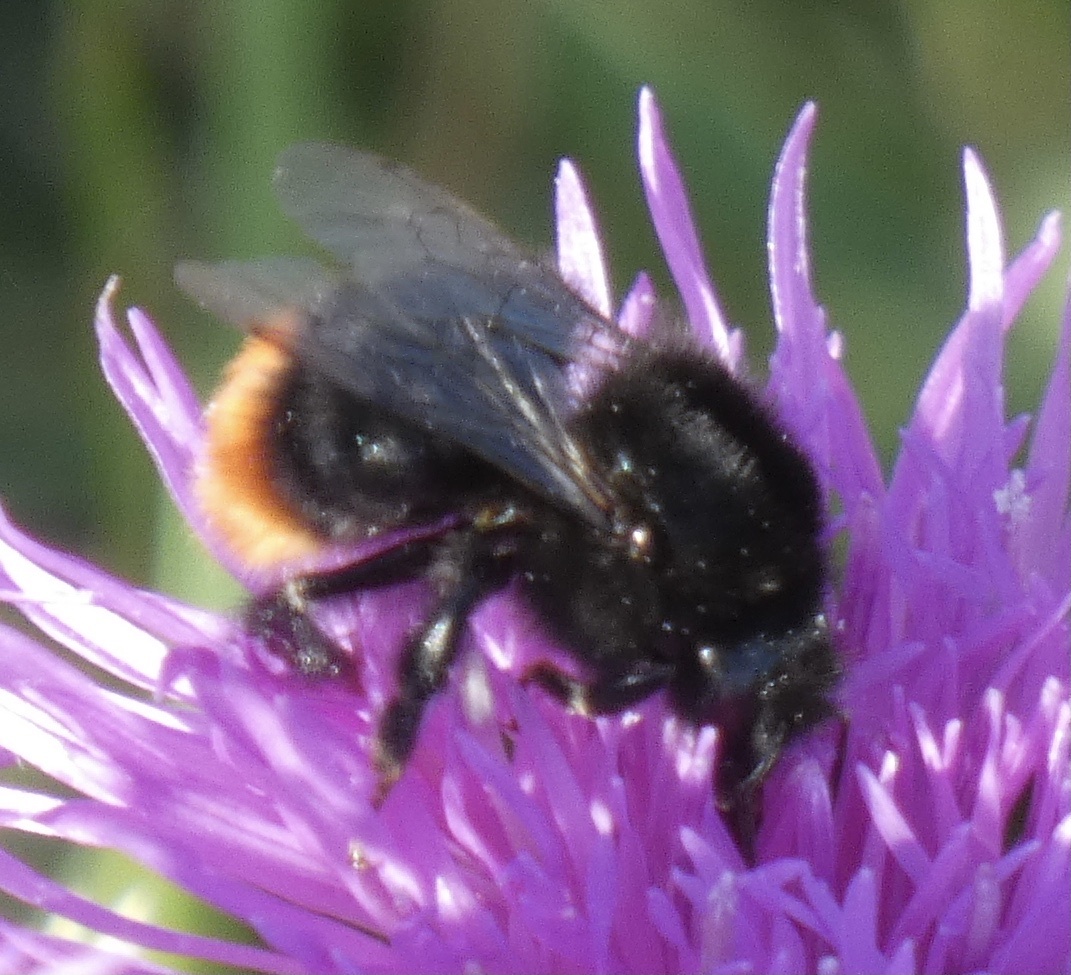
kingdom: Animalia
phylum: Arthropoda
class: Insecta
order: Hymenoptera
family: Apidae
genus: Bombus
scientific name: Bombus lapidarius
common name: Large red-tailed humble-bee
